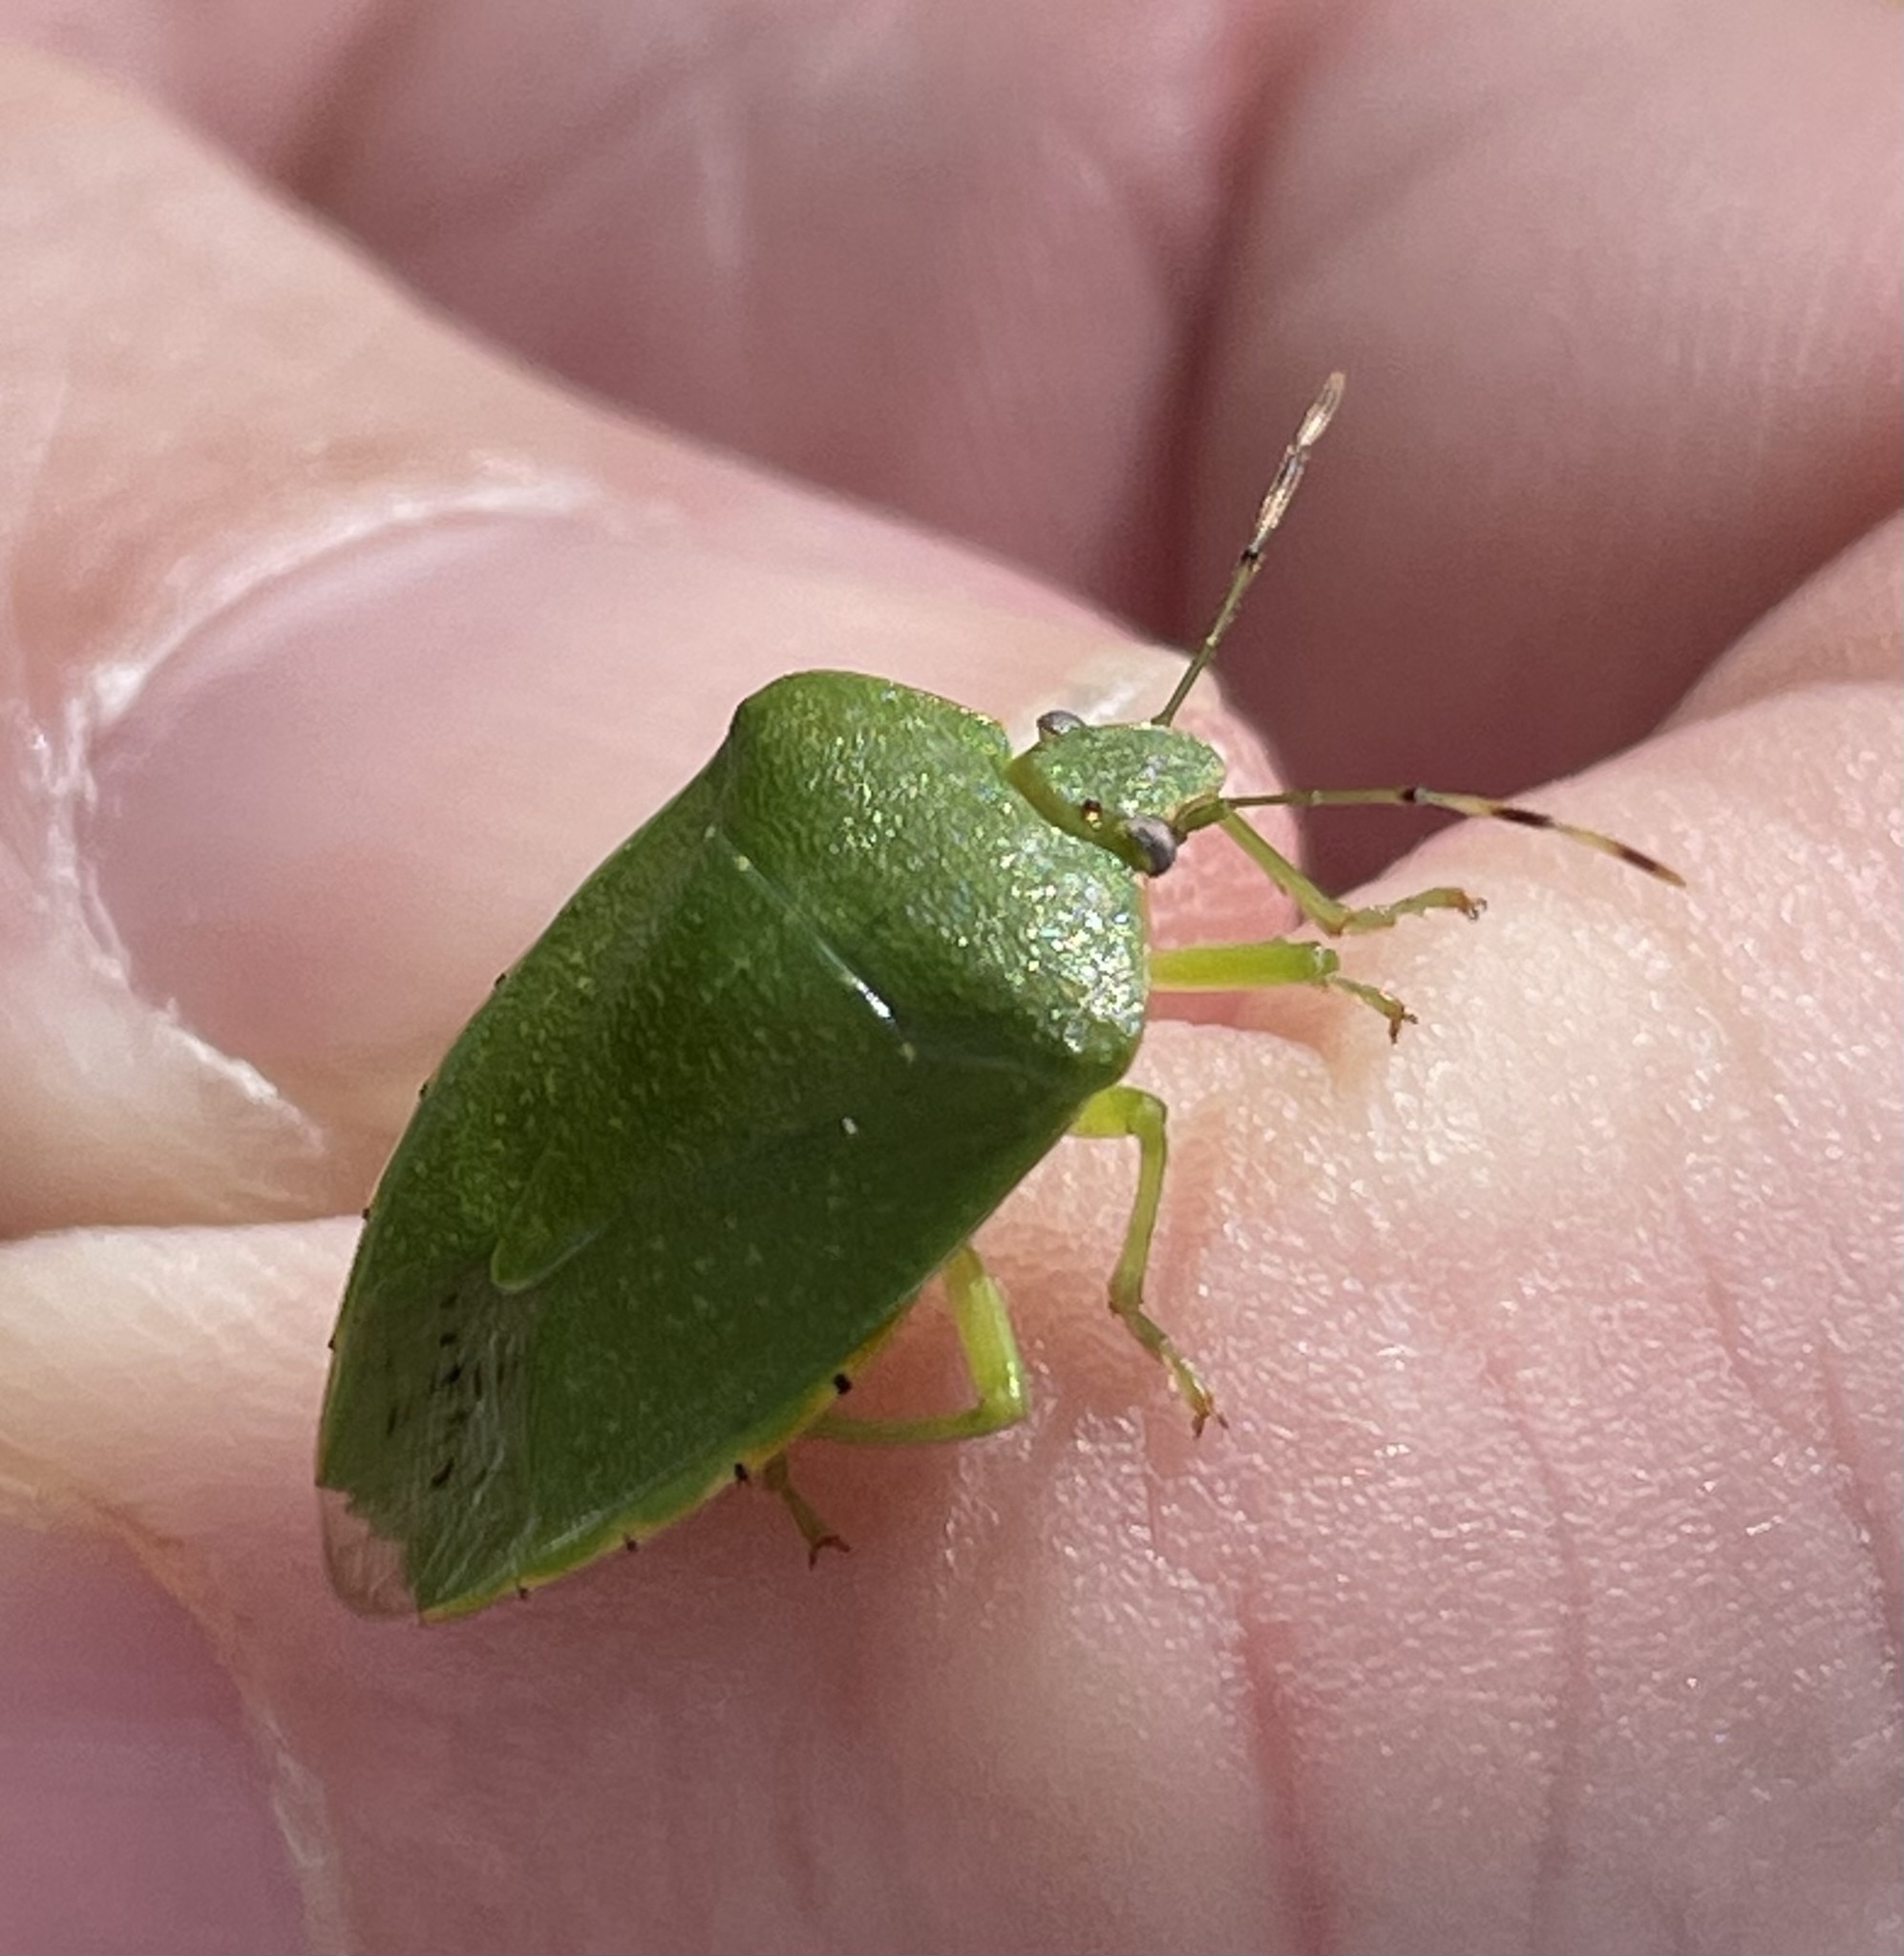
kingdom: Animalia
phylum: Arthropoda
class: Insecta
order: Hemiptera
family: Pentatomidae
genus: Chinavia
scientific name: Chinavia hilaris
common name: Green stink bug
